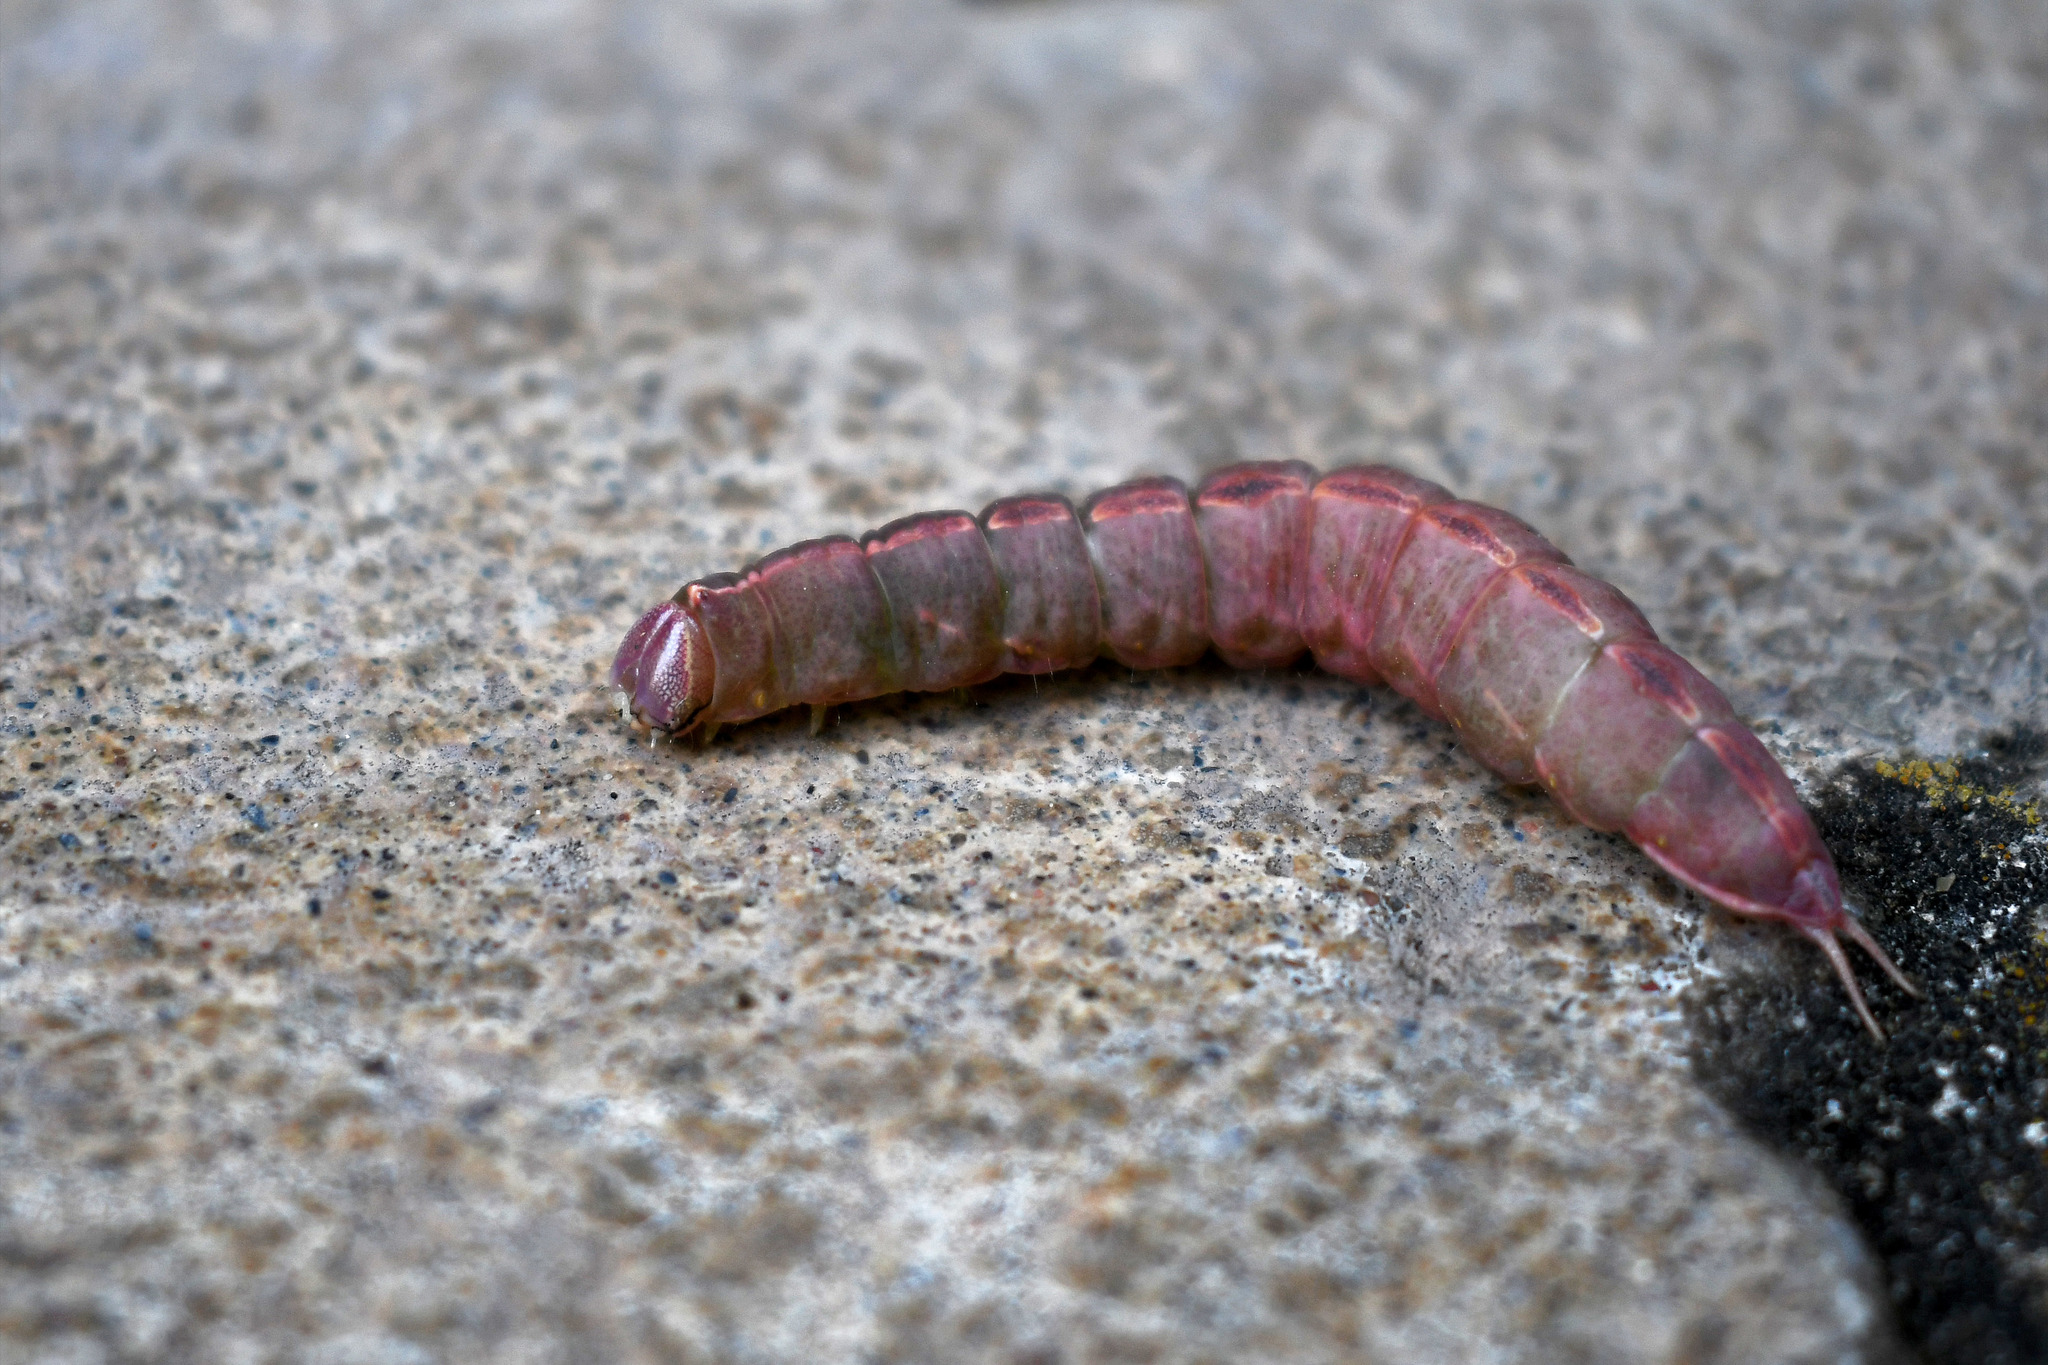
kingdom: Animalia
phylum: Arthropoda
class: Insecta
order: Lepidoptera
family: Notodontidae
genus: Macrurocampa
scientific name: Macrurocampa marthesia
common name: Mottled prominent
